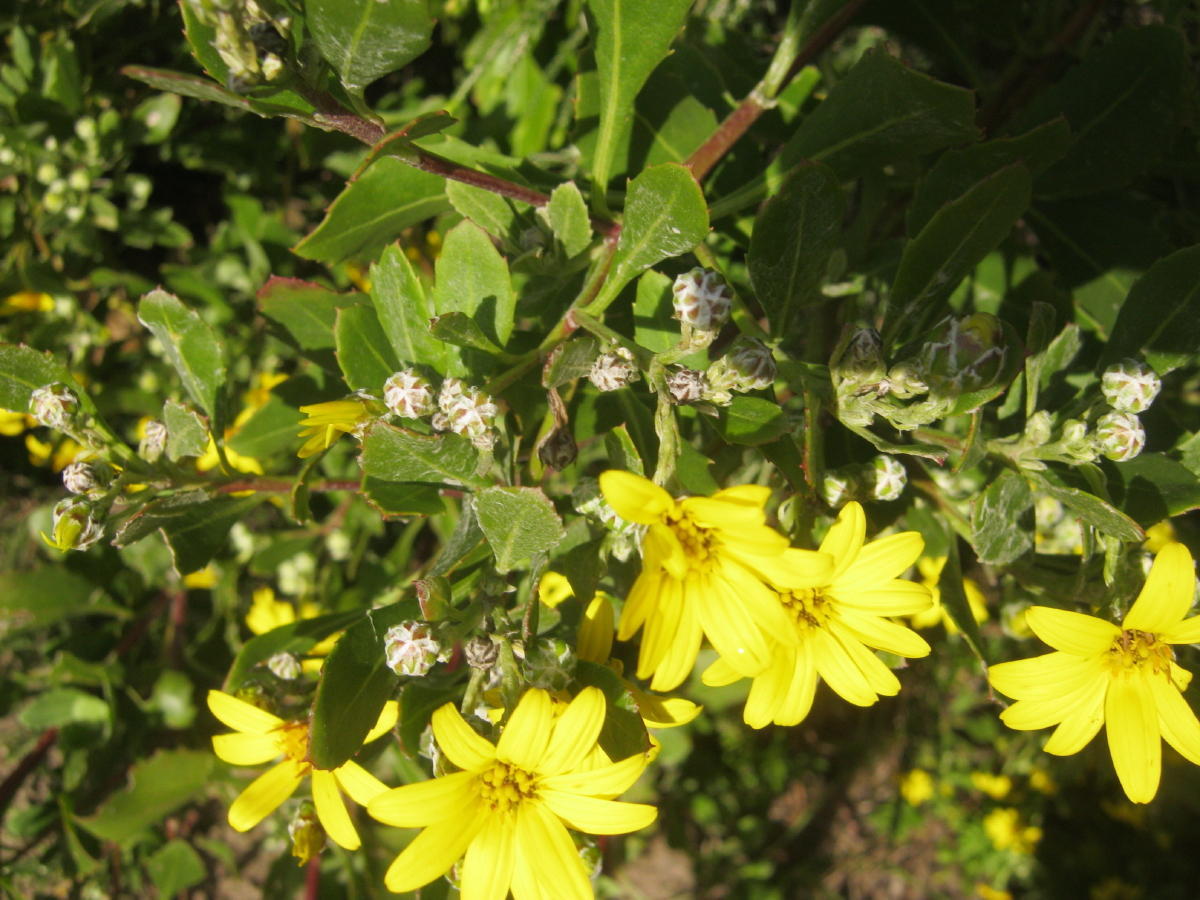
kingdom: Plantae
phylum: Tracheophyta
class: Magnoliopsida
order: Asterales
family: Asteraceae
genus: Osteospermum
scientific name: Osteospermum moniliferum
